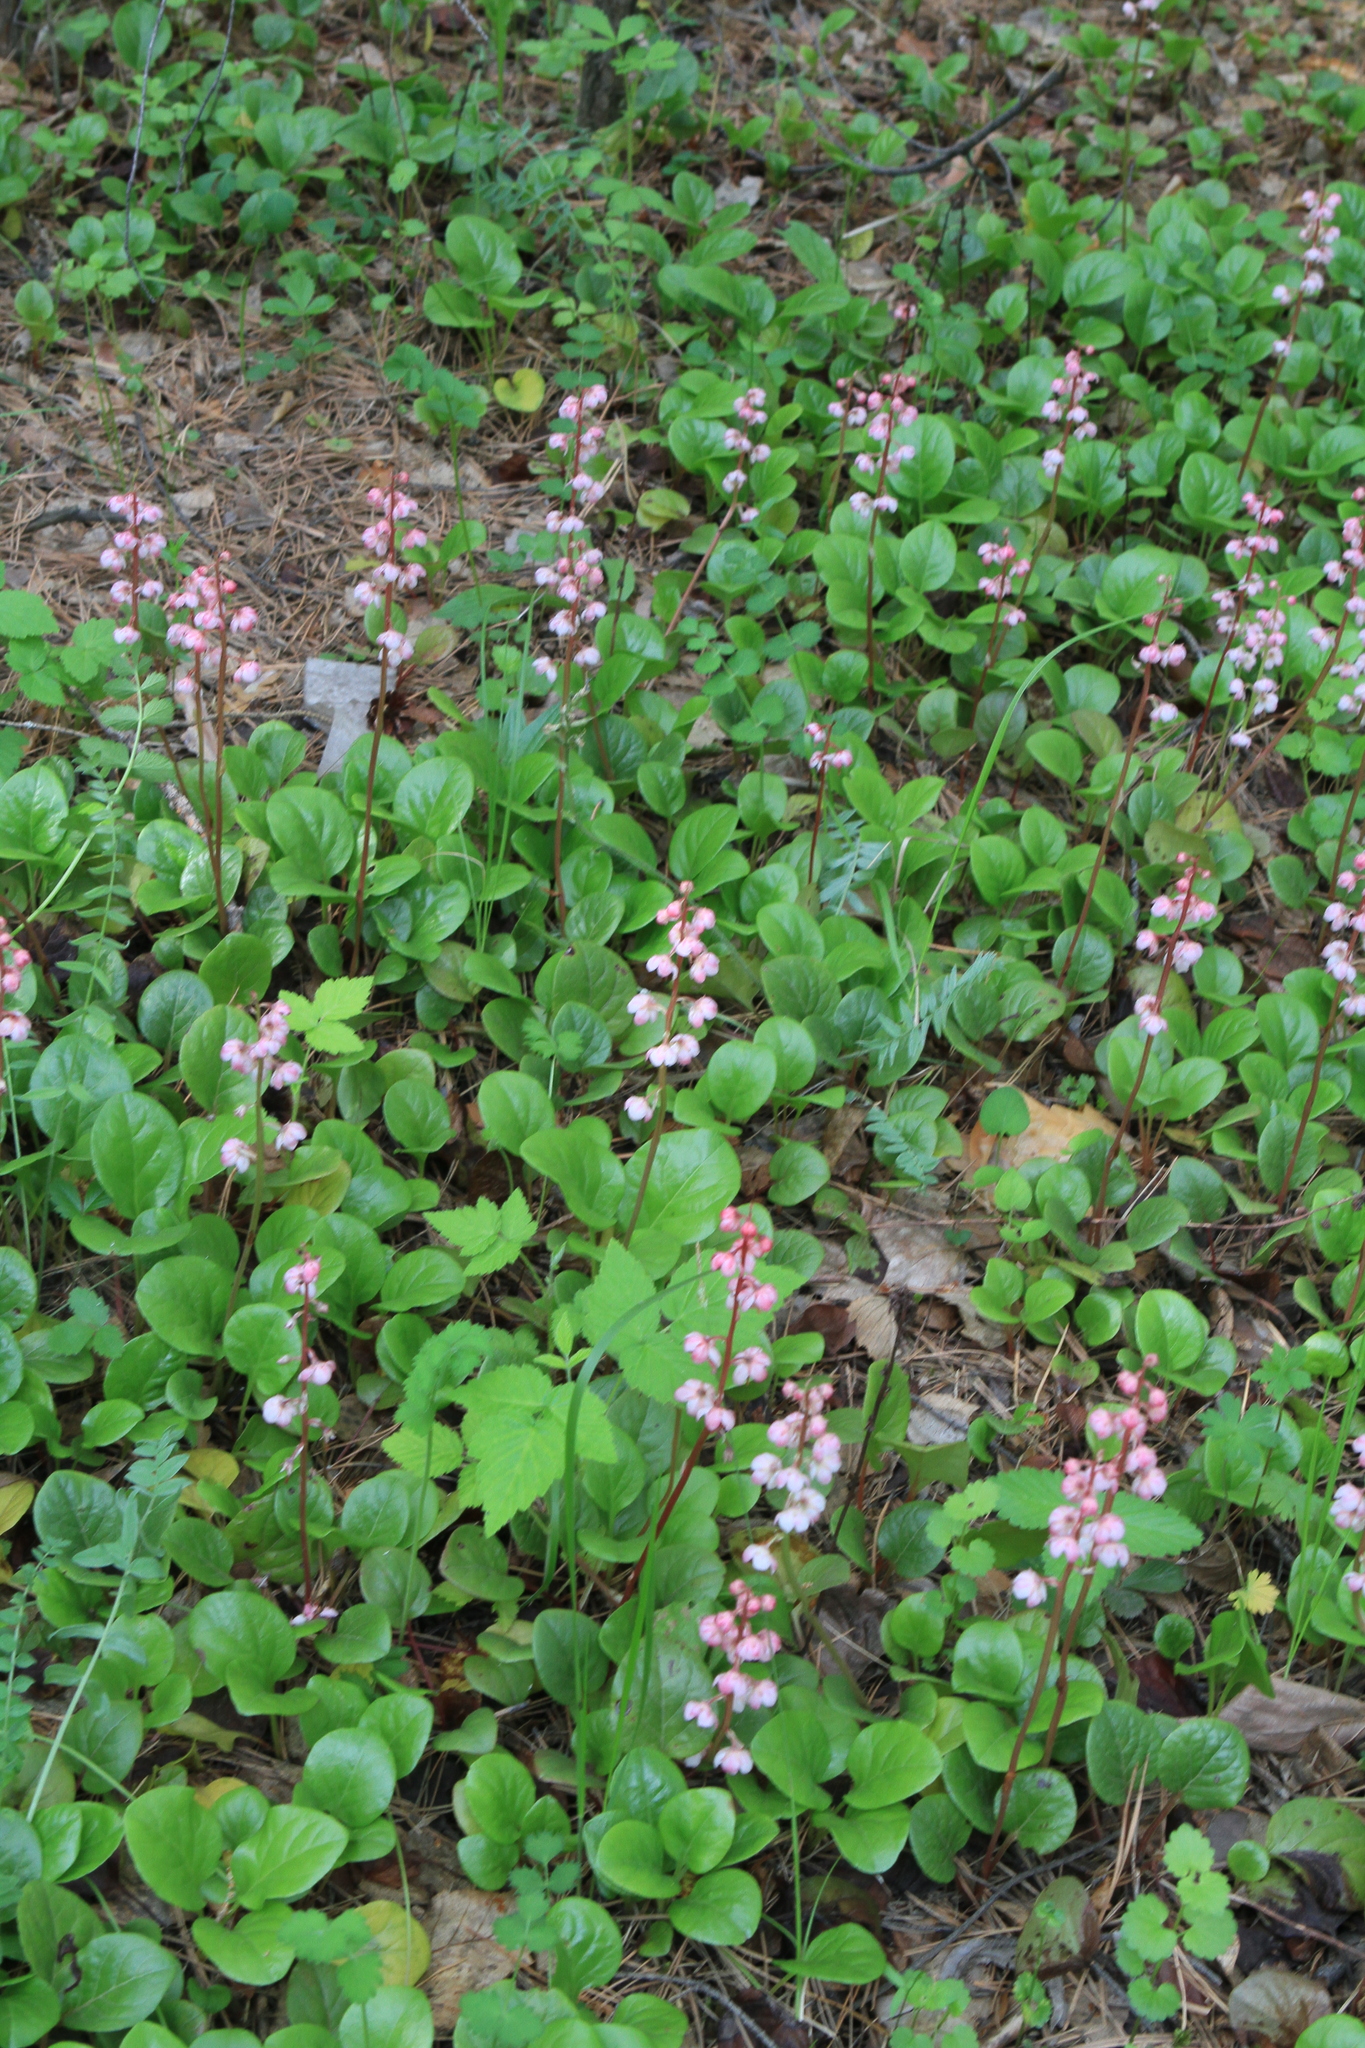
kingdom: Plantae
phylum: Tracheophyta
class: Magnoliopsida
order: Ericales
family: Ericaceae
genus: Pyrola
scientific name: Pyrola asarifolia
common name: Bog wintergreen
